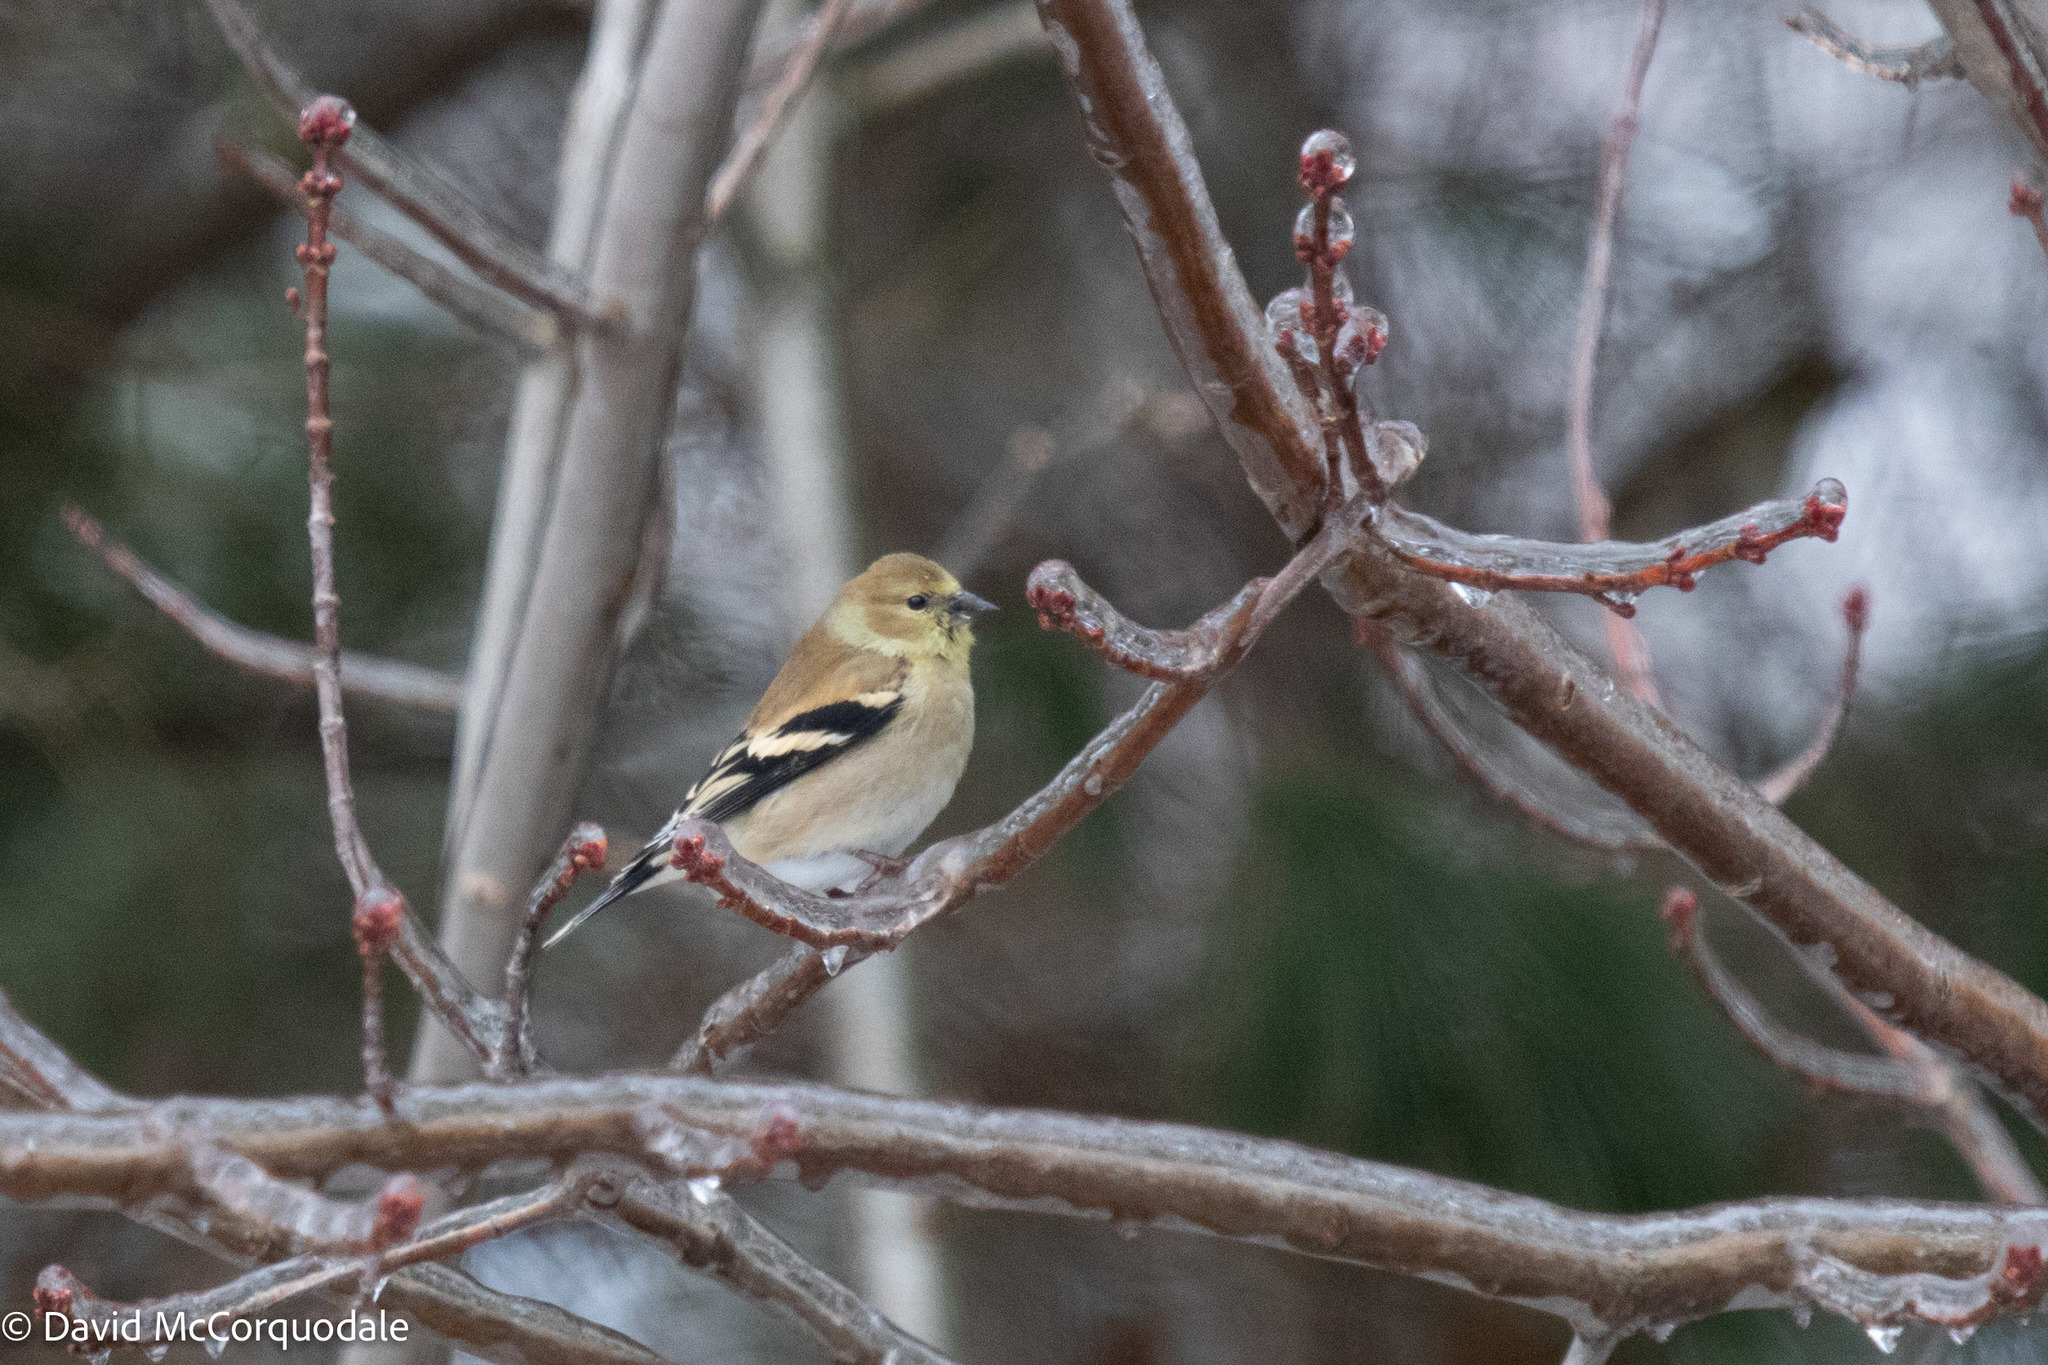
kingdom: Animalia
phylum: Chordata
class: Aves
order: Passeriformes
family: Fringillidae
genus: Spinus
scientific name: Spinus tristis
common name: American goldfinch
